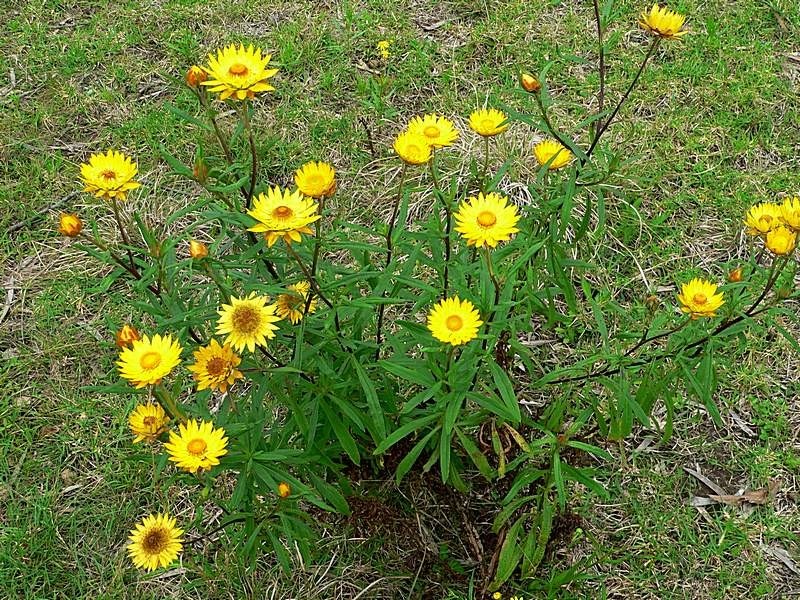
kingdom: Plantae
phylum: Tracheophyta
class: Magnoliopsida
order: Asterales
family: Asteraceae
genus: Xerochrysum
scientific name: Xerochrysum bracteatum
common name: Bracted strawflower
